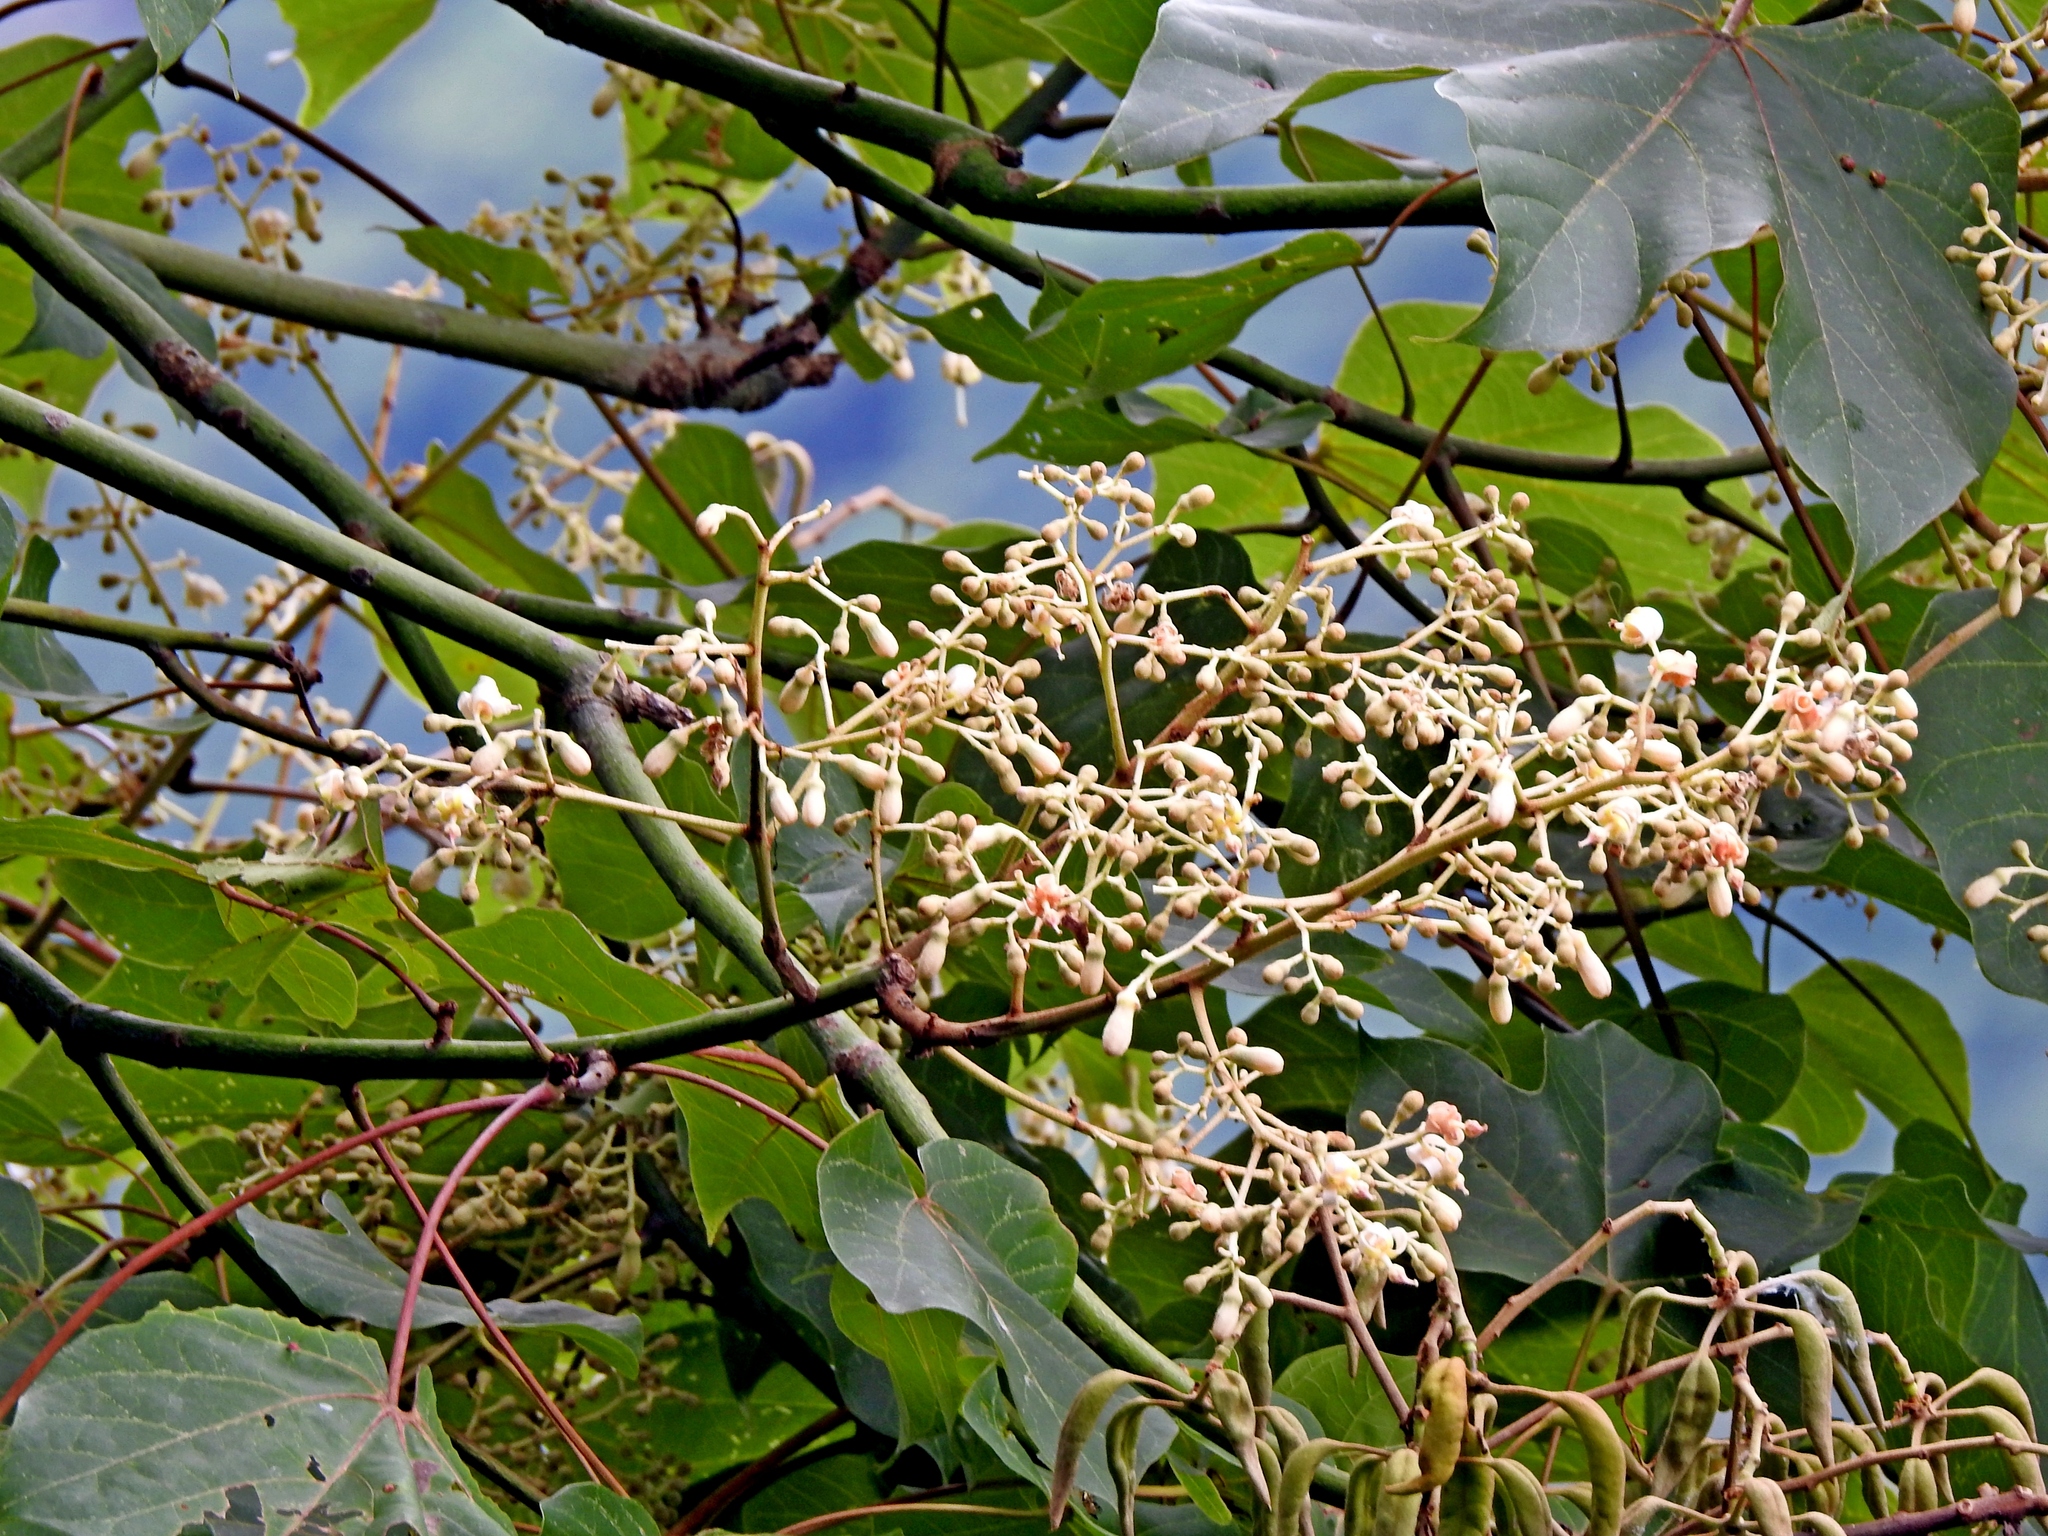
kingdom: Plantae
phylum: Tracheophyta
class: Magnoliopsida
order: Malvales
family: Malvaceae
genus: Firmiana
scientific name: Firmiana simplex
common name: Chinese parasoltree
